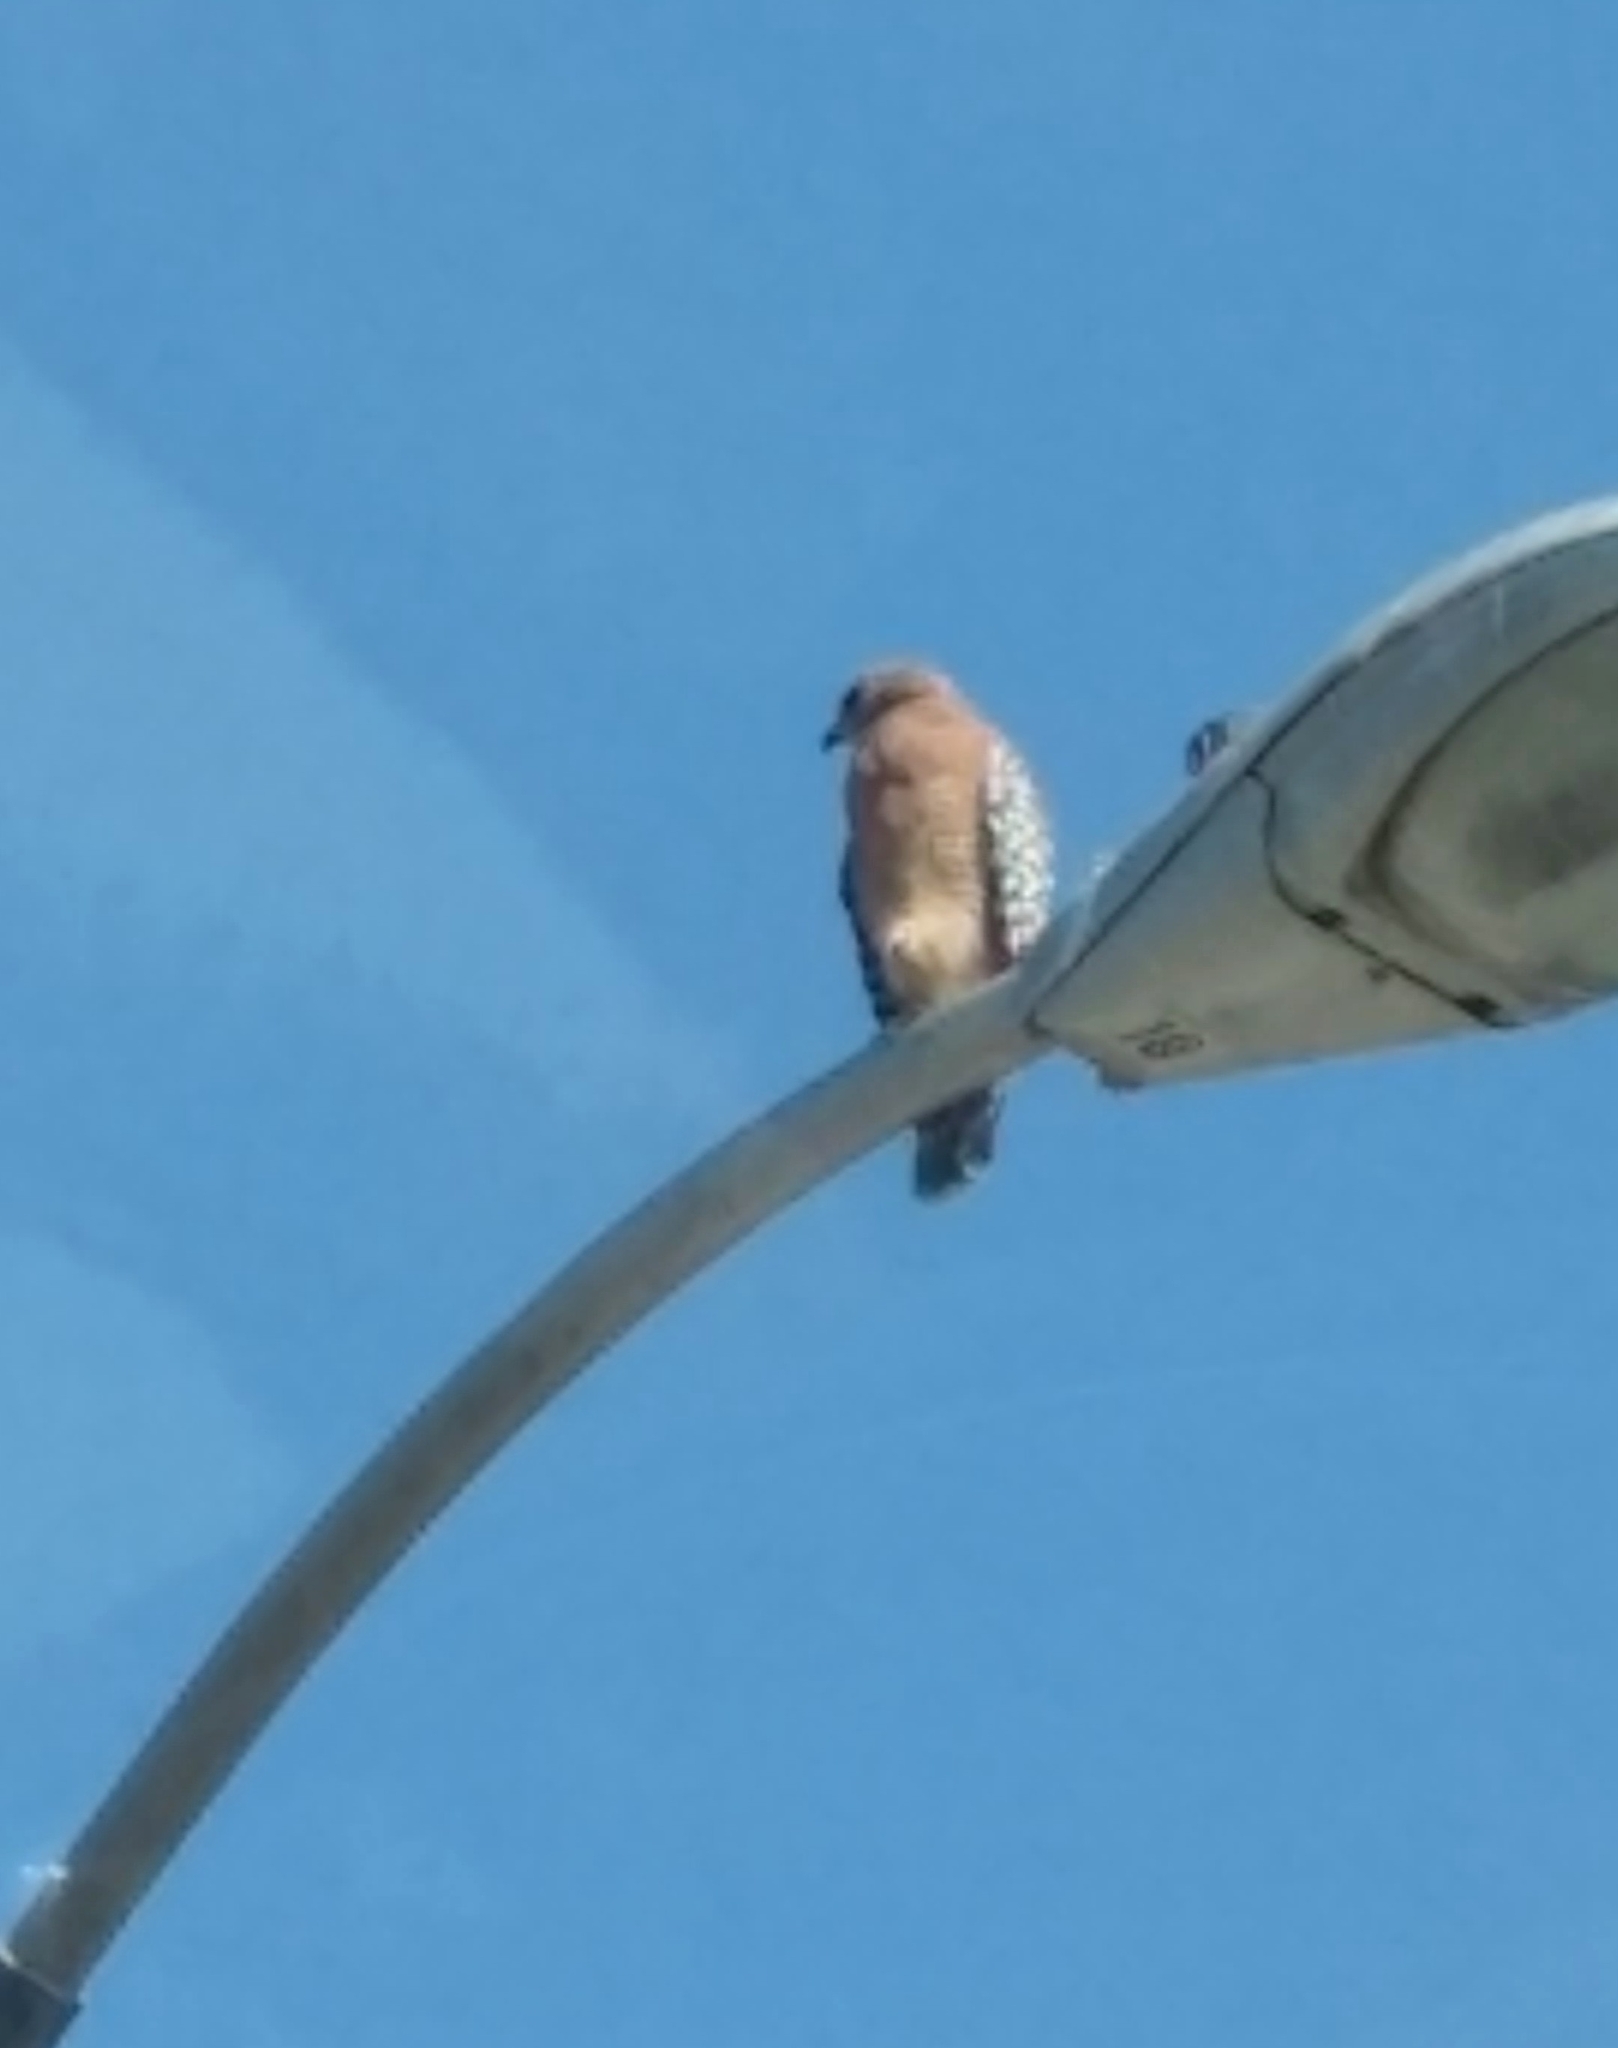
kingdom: Animalia
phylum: Chordata
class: Aves
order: Accipitriformes
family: Accipitridae
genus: Buteo
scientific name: Buteo lineatus
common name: Red-shouldered hawk
